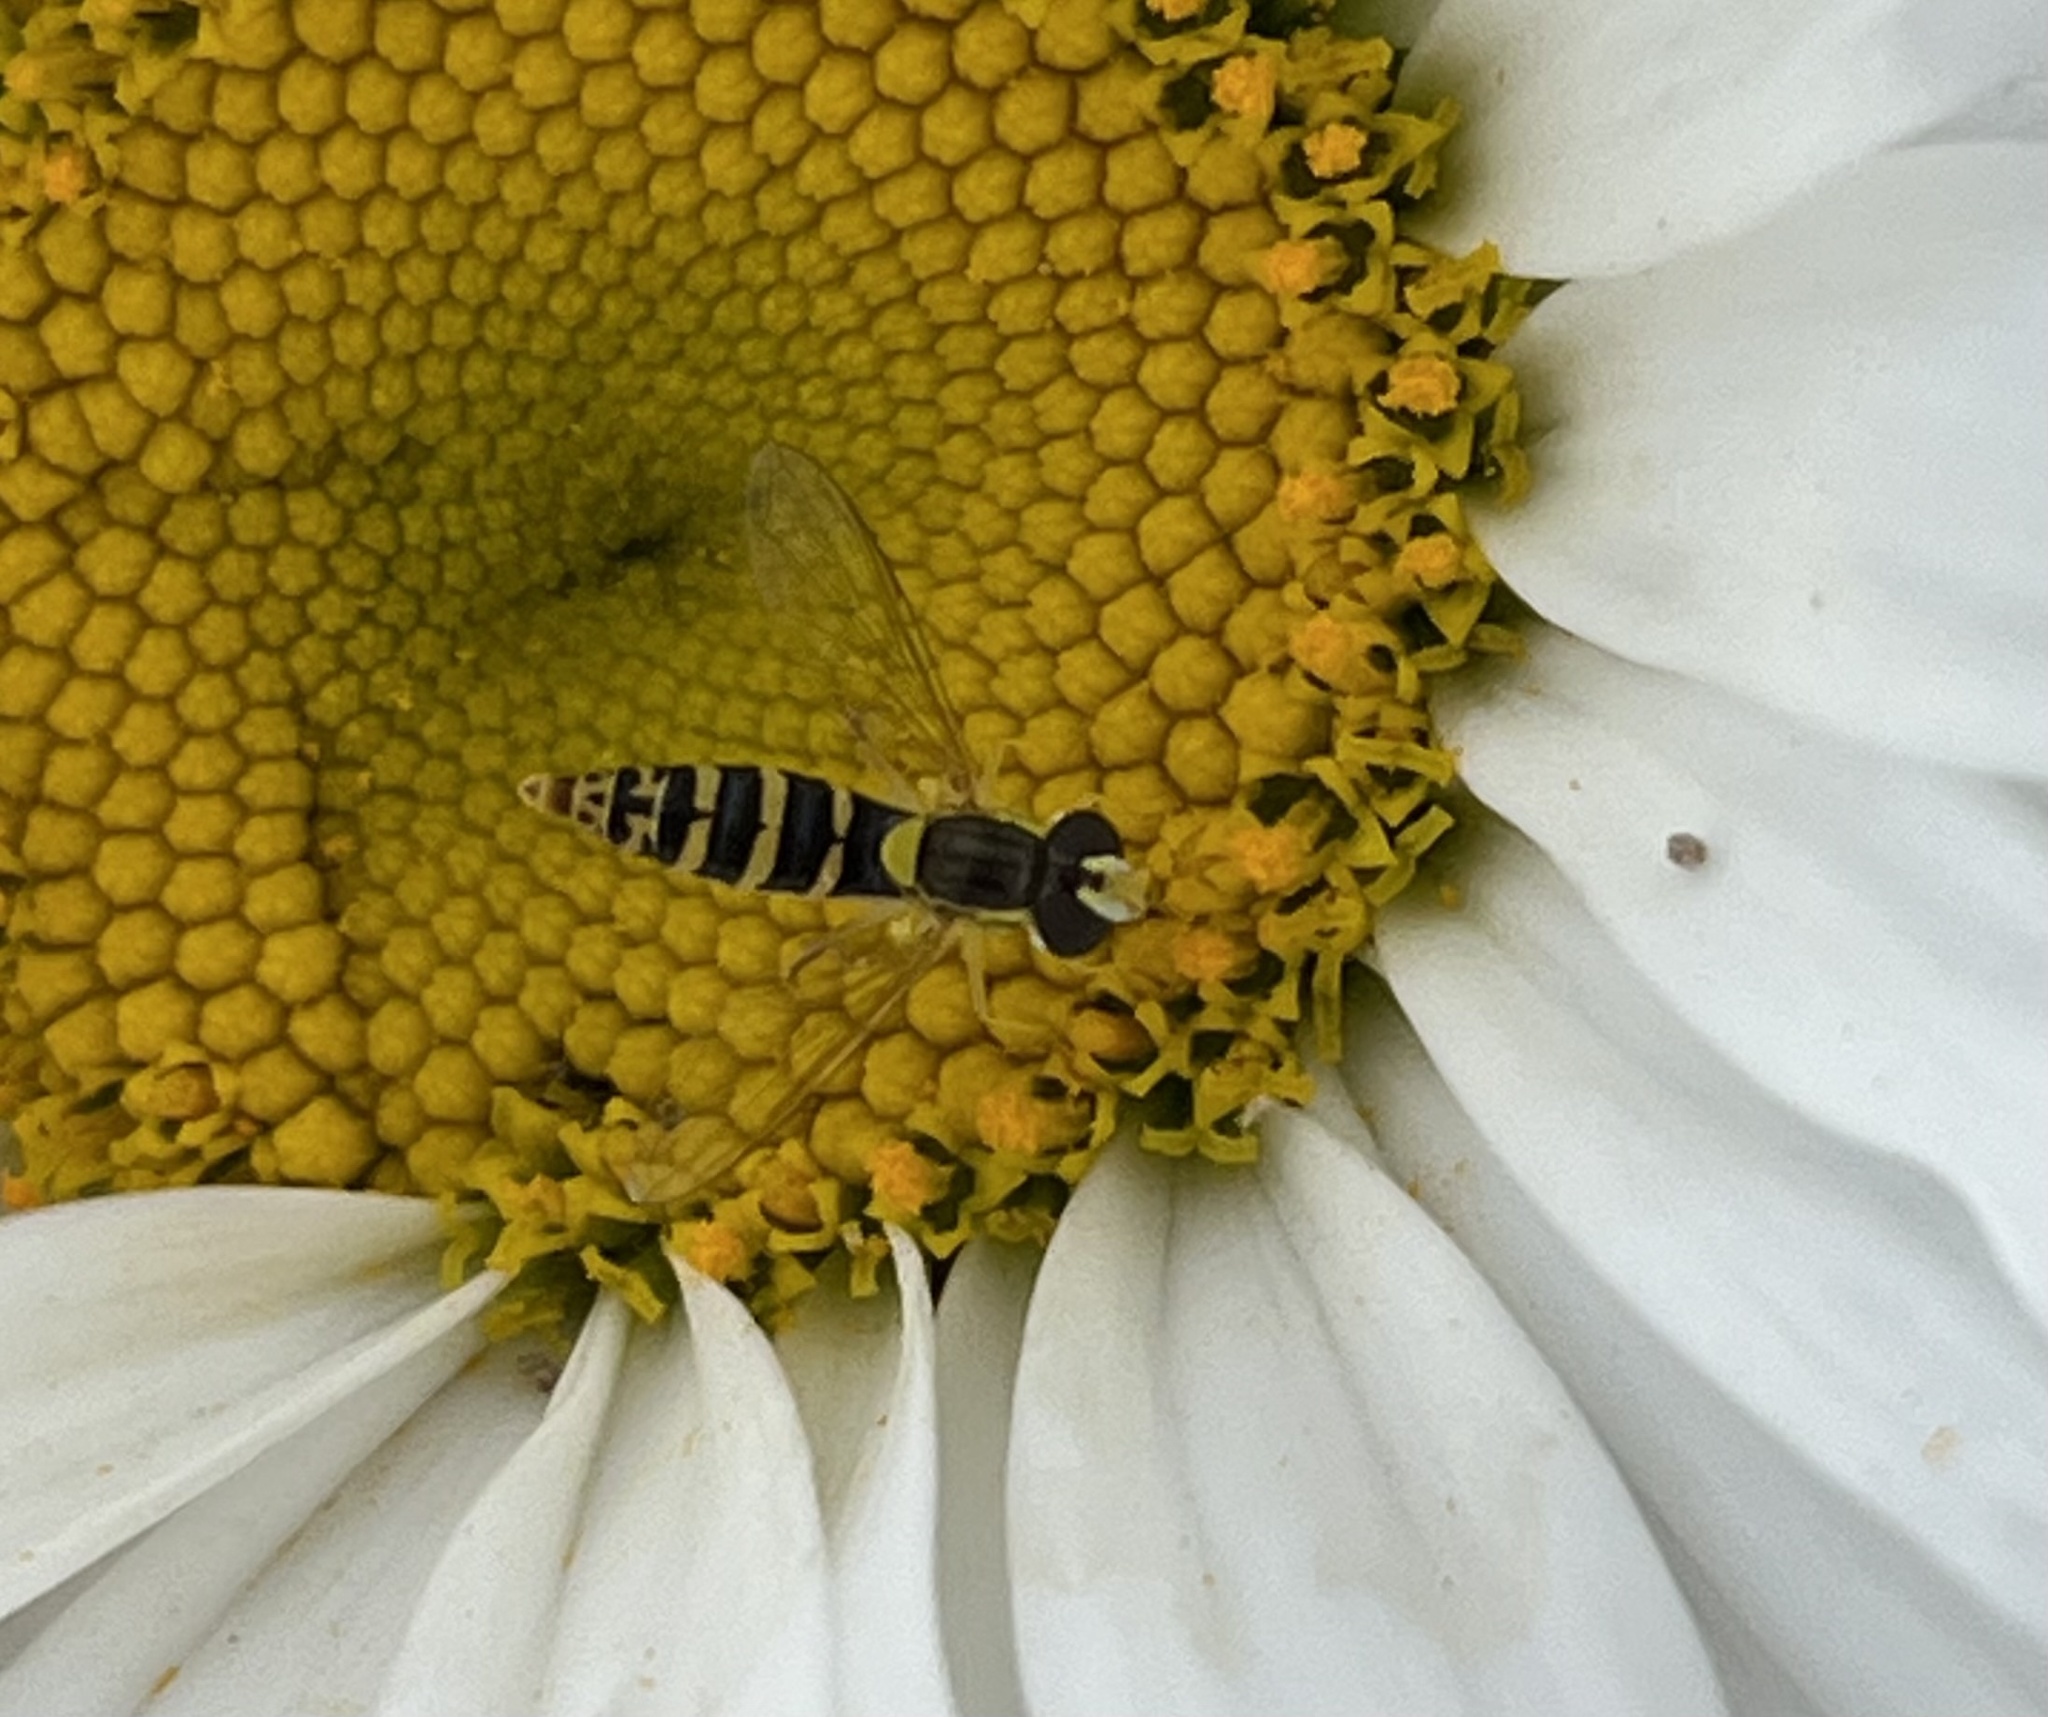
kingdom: Animalia
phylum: Arthropoda
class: Insecta
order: Diptera
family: Syrphidae
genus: Sphaerophoria
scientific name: Sphaerophoria
